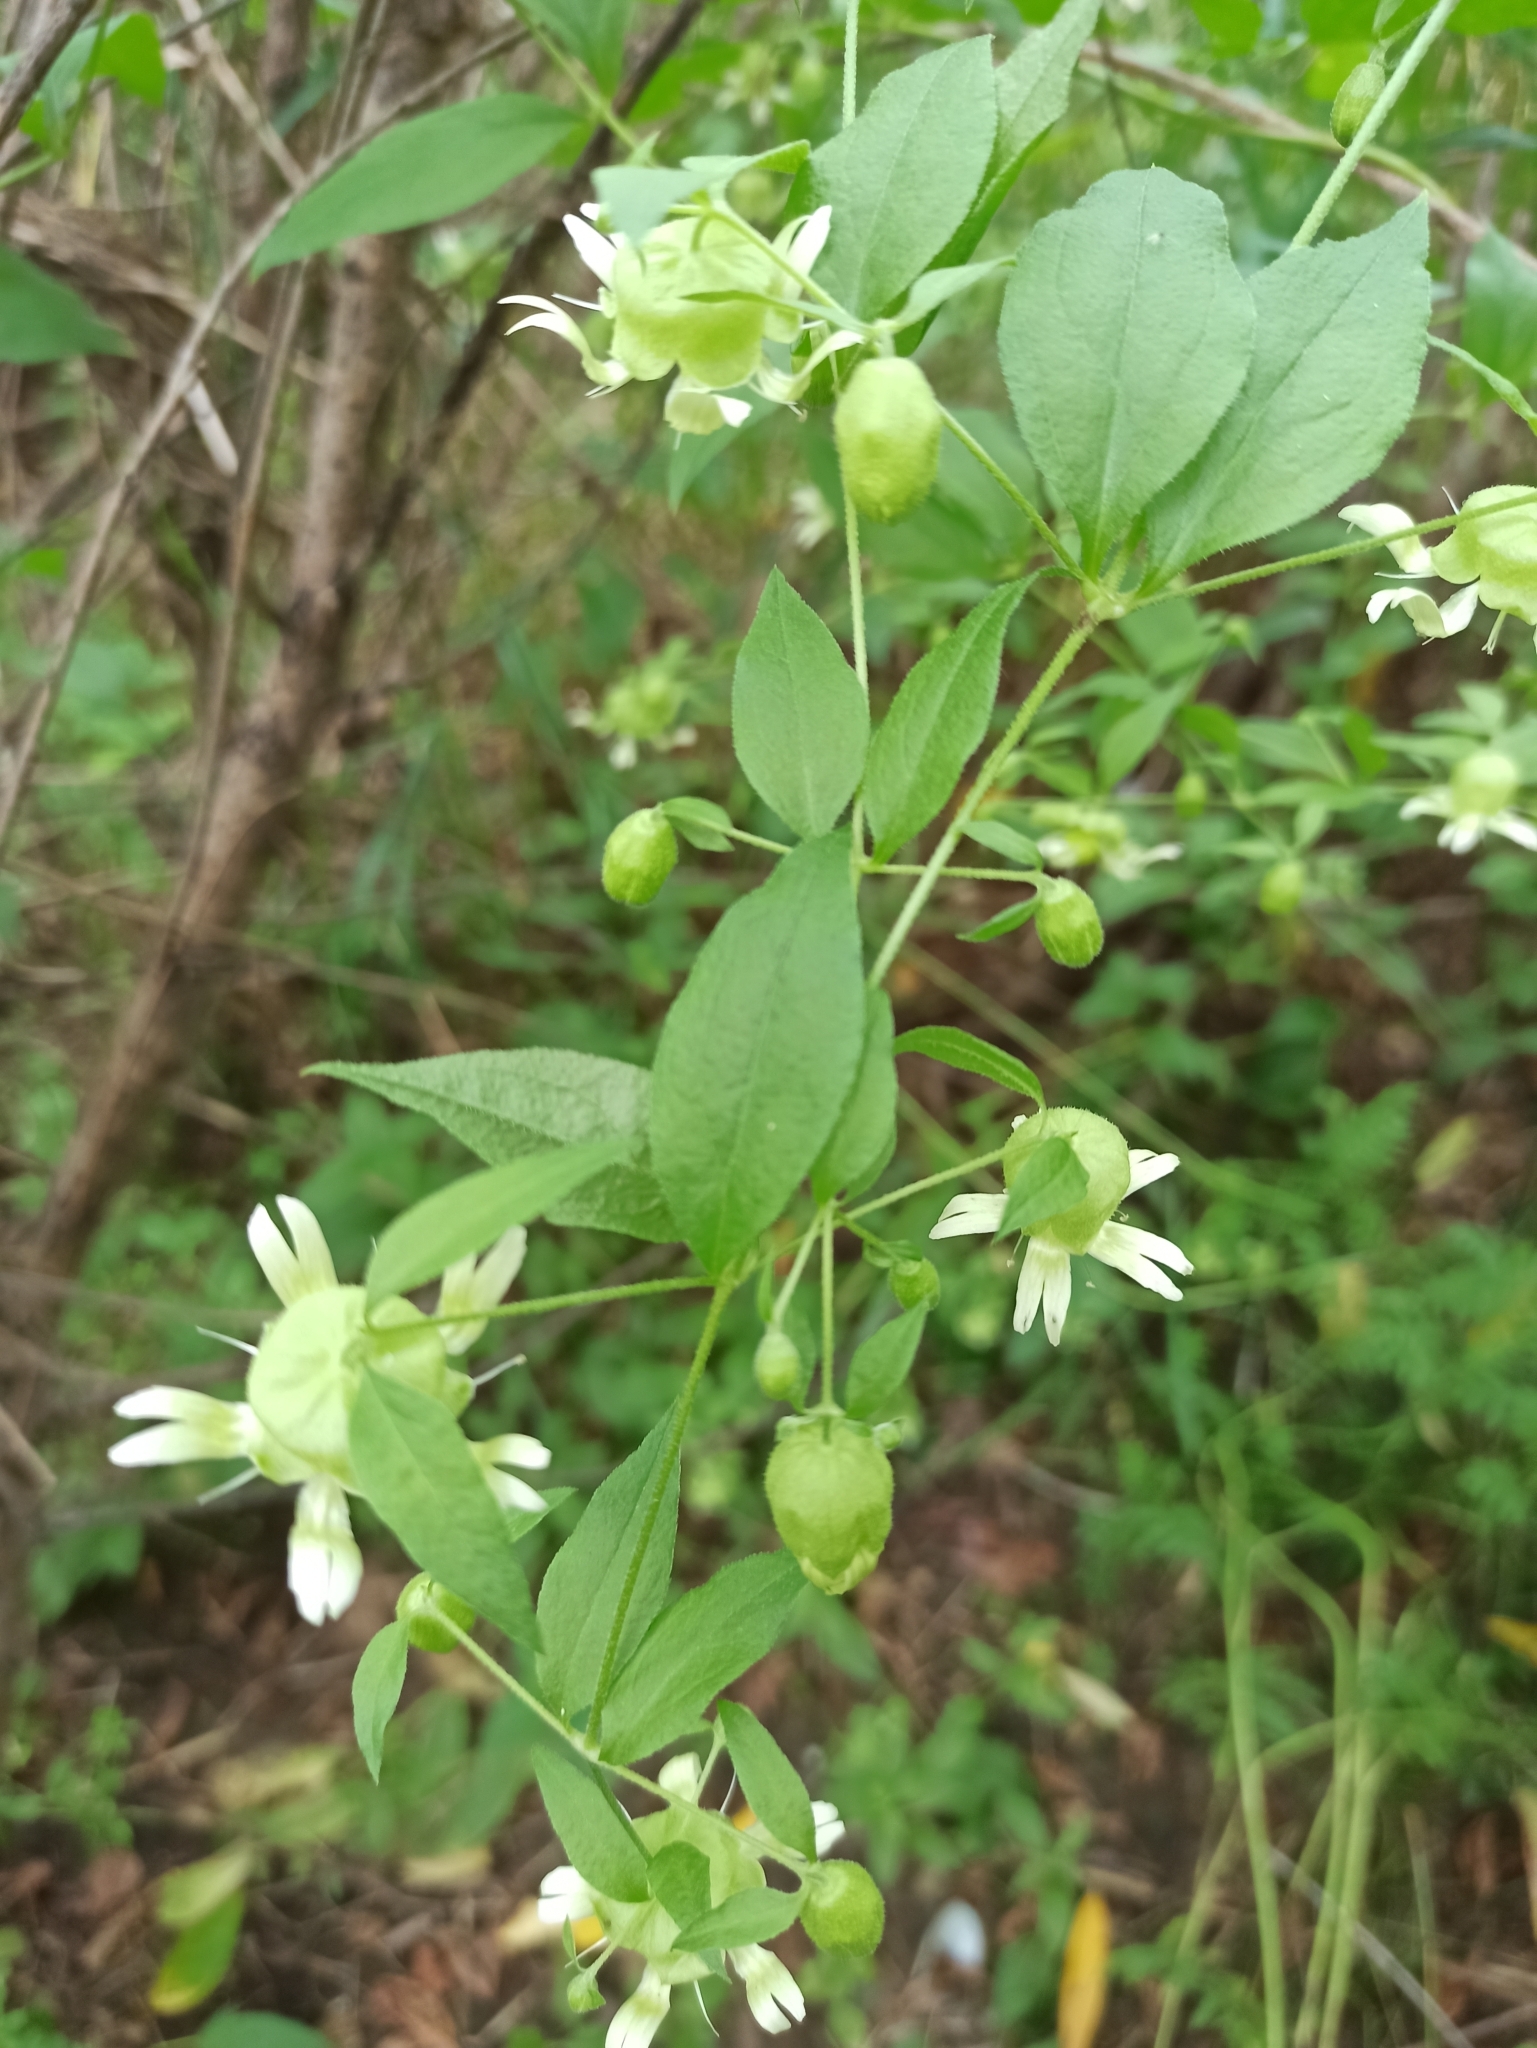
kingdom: Plantae
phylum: Tracheophyta
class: Magnoliopsida
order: Caryophyllales
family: Caryophyllaceae
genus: Silene
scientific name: Silene baccifera
